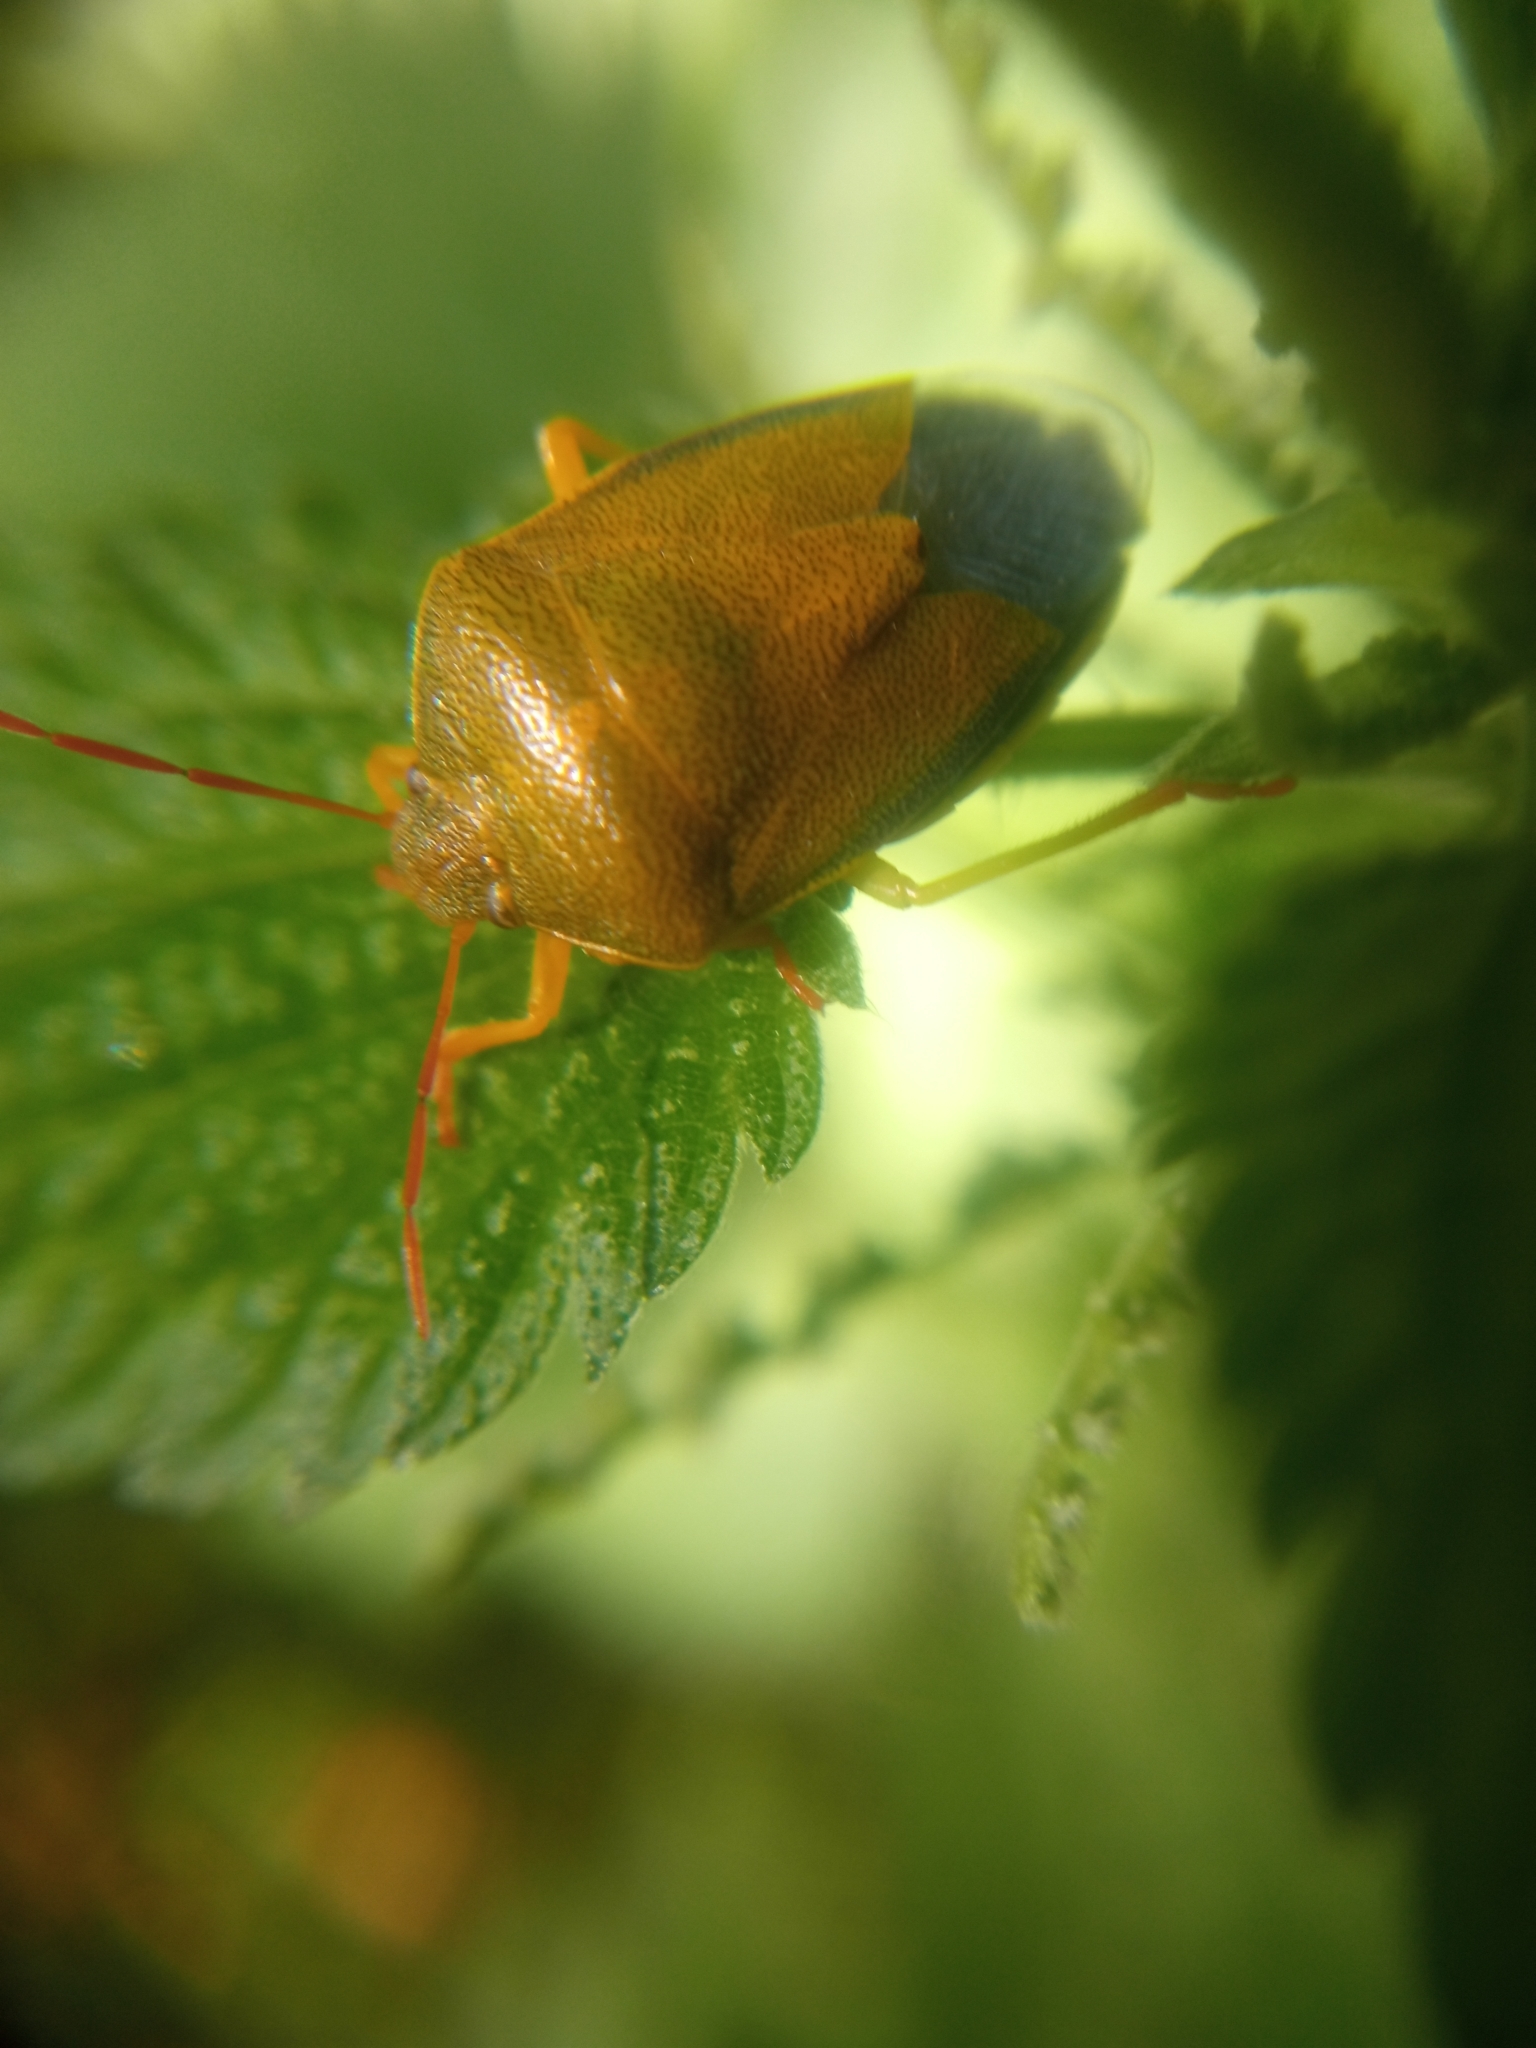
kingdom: Animalia
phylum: Arthropoda
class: Insecta
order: Hemiptera
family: Pentatomidae
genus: Piezodorus
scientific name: Piezodorus lituratus
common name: Stink bug
